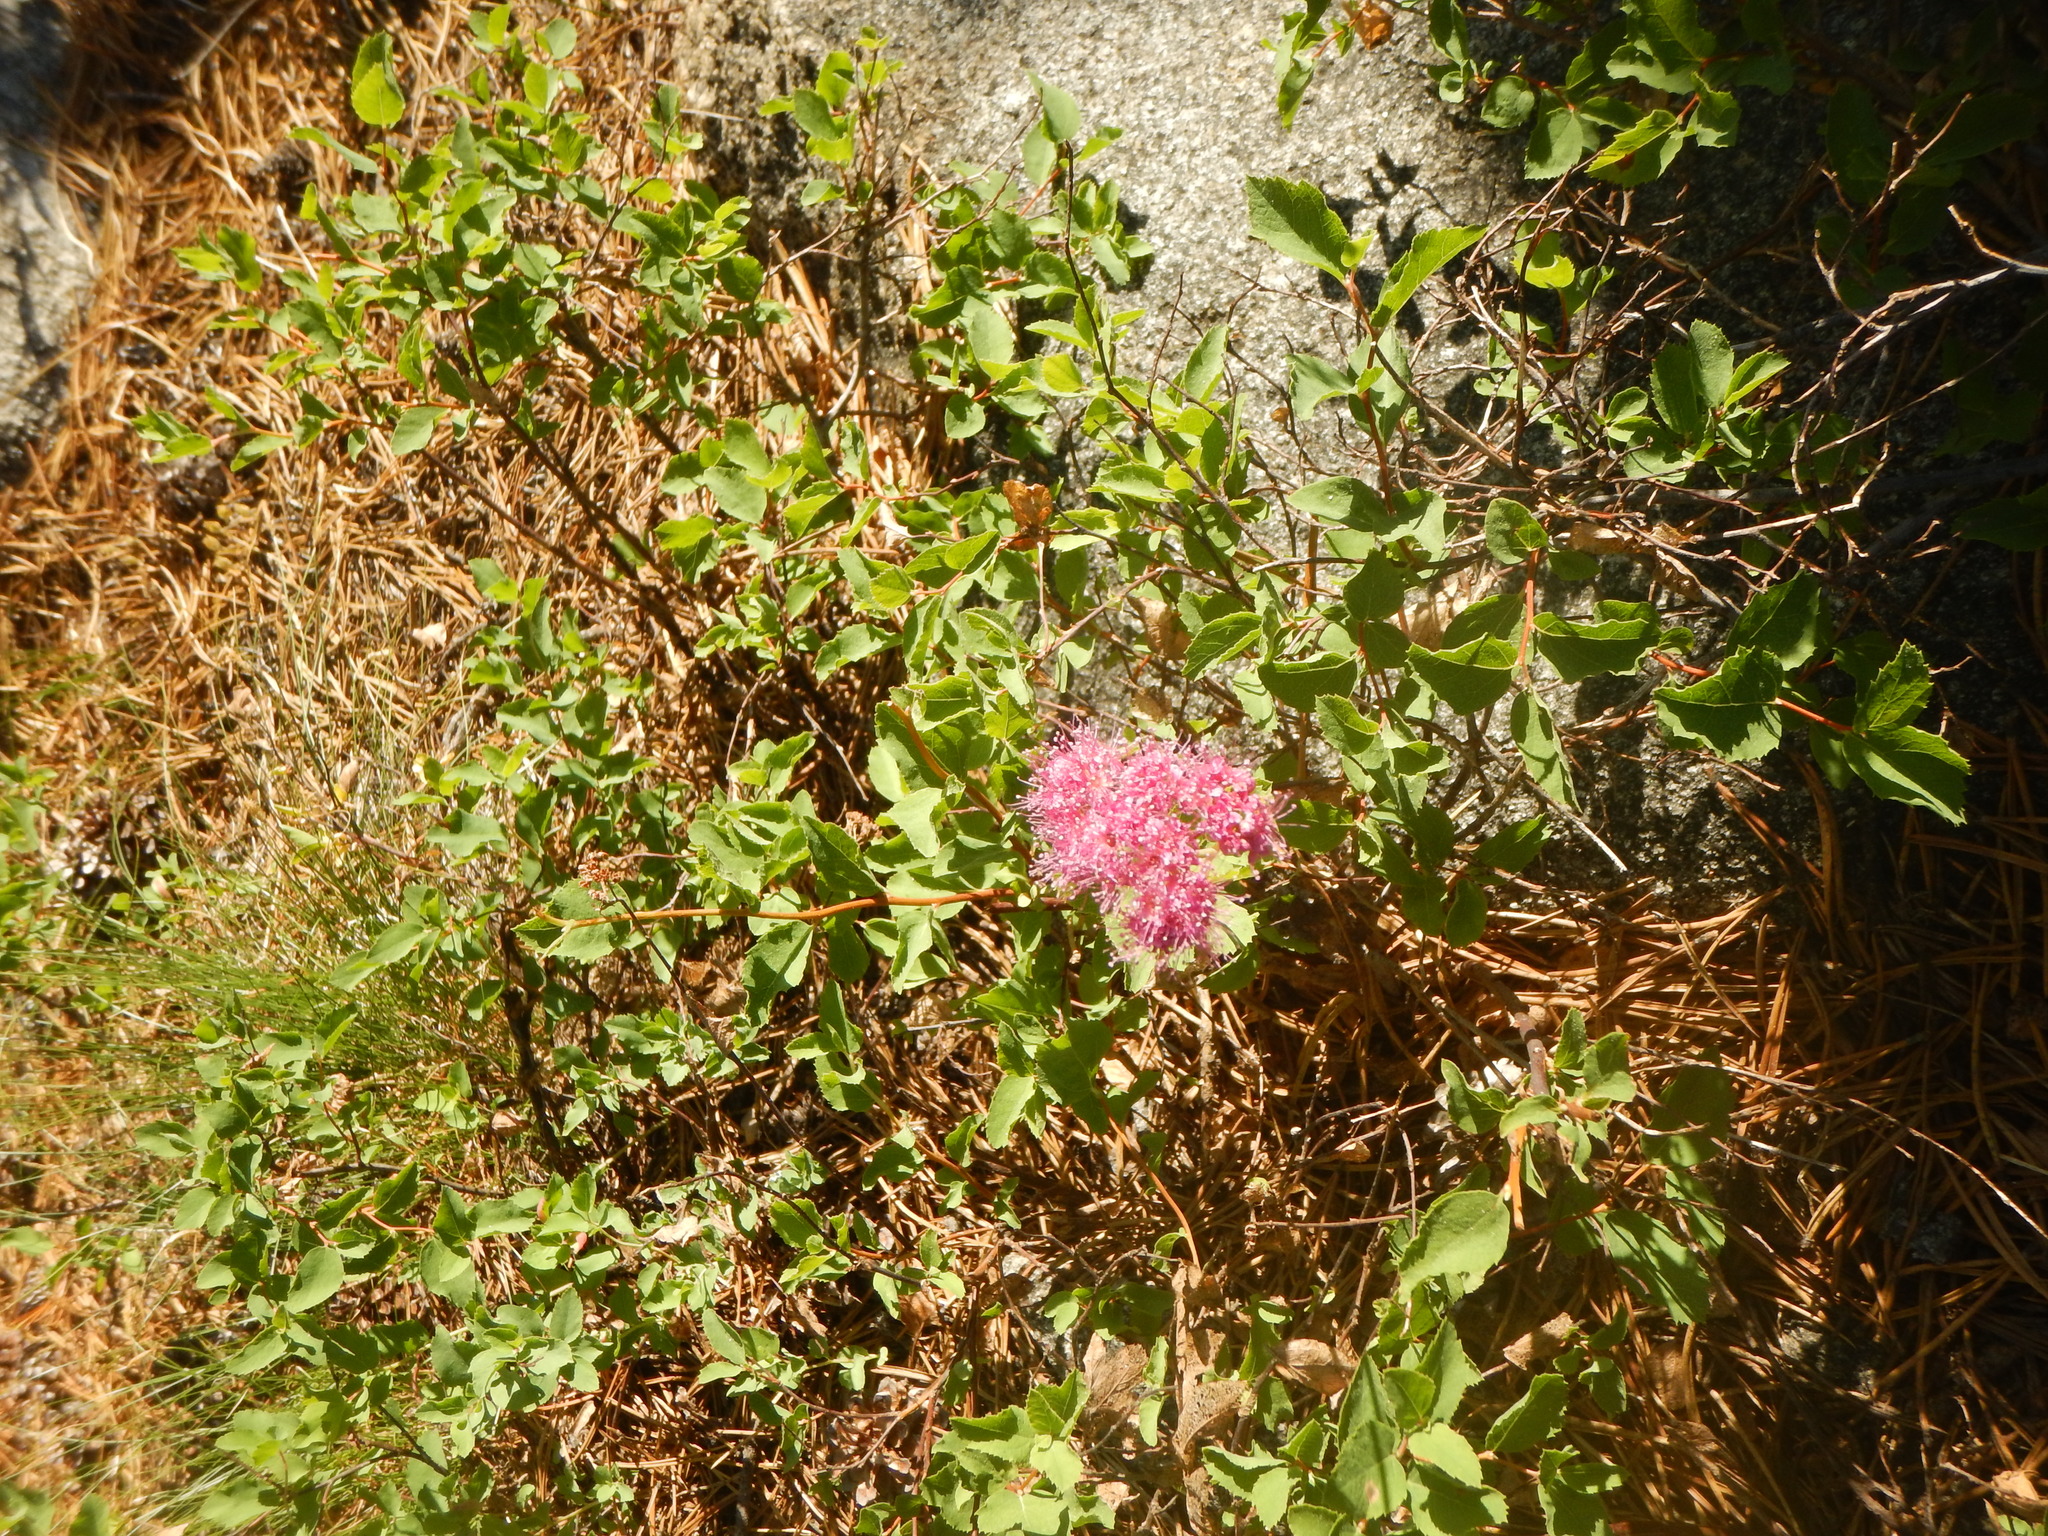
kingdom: Plantae
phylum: Tracheophyta
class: Magnoliopsida
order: Rosales
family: Rosaceae
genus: Spiraea
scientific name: Spiraea splendens
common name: Subalpine meadowsweet
